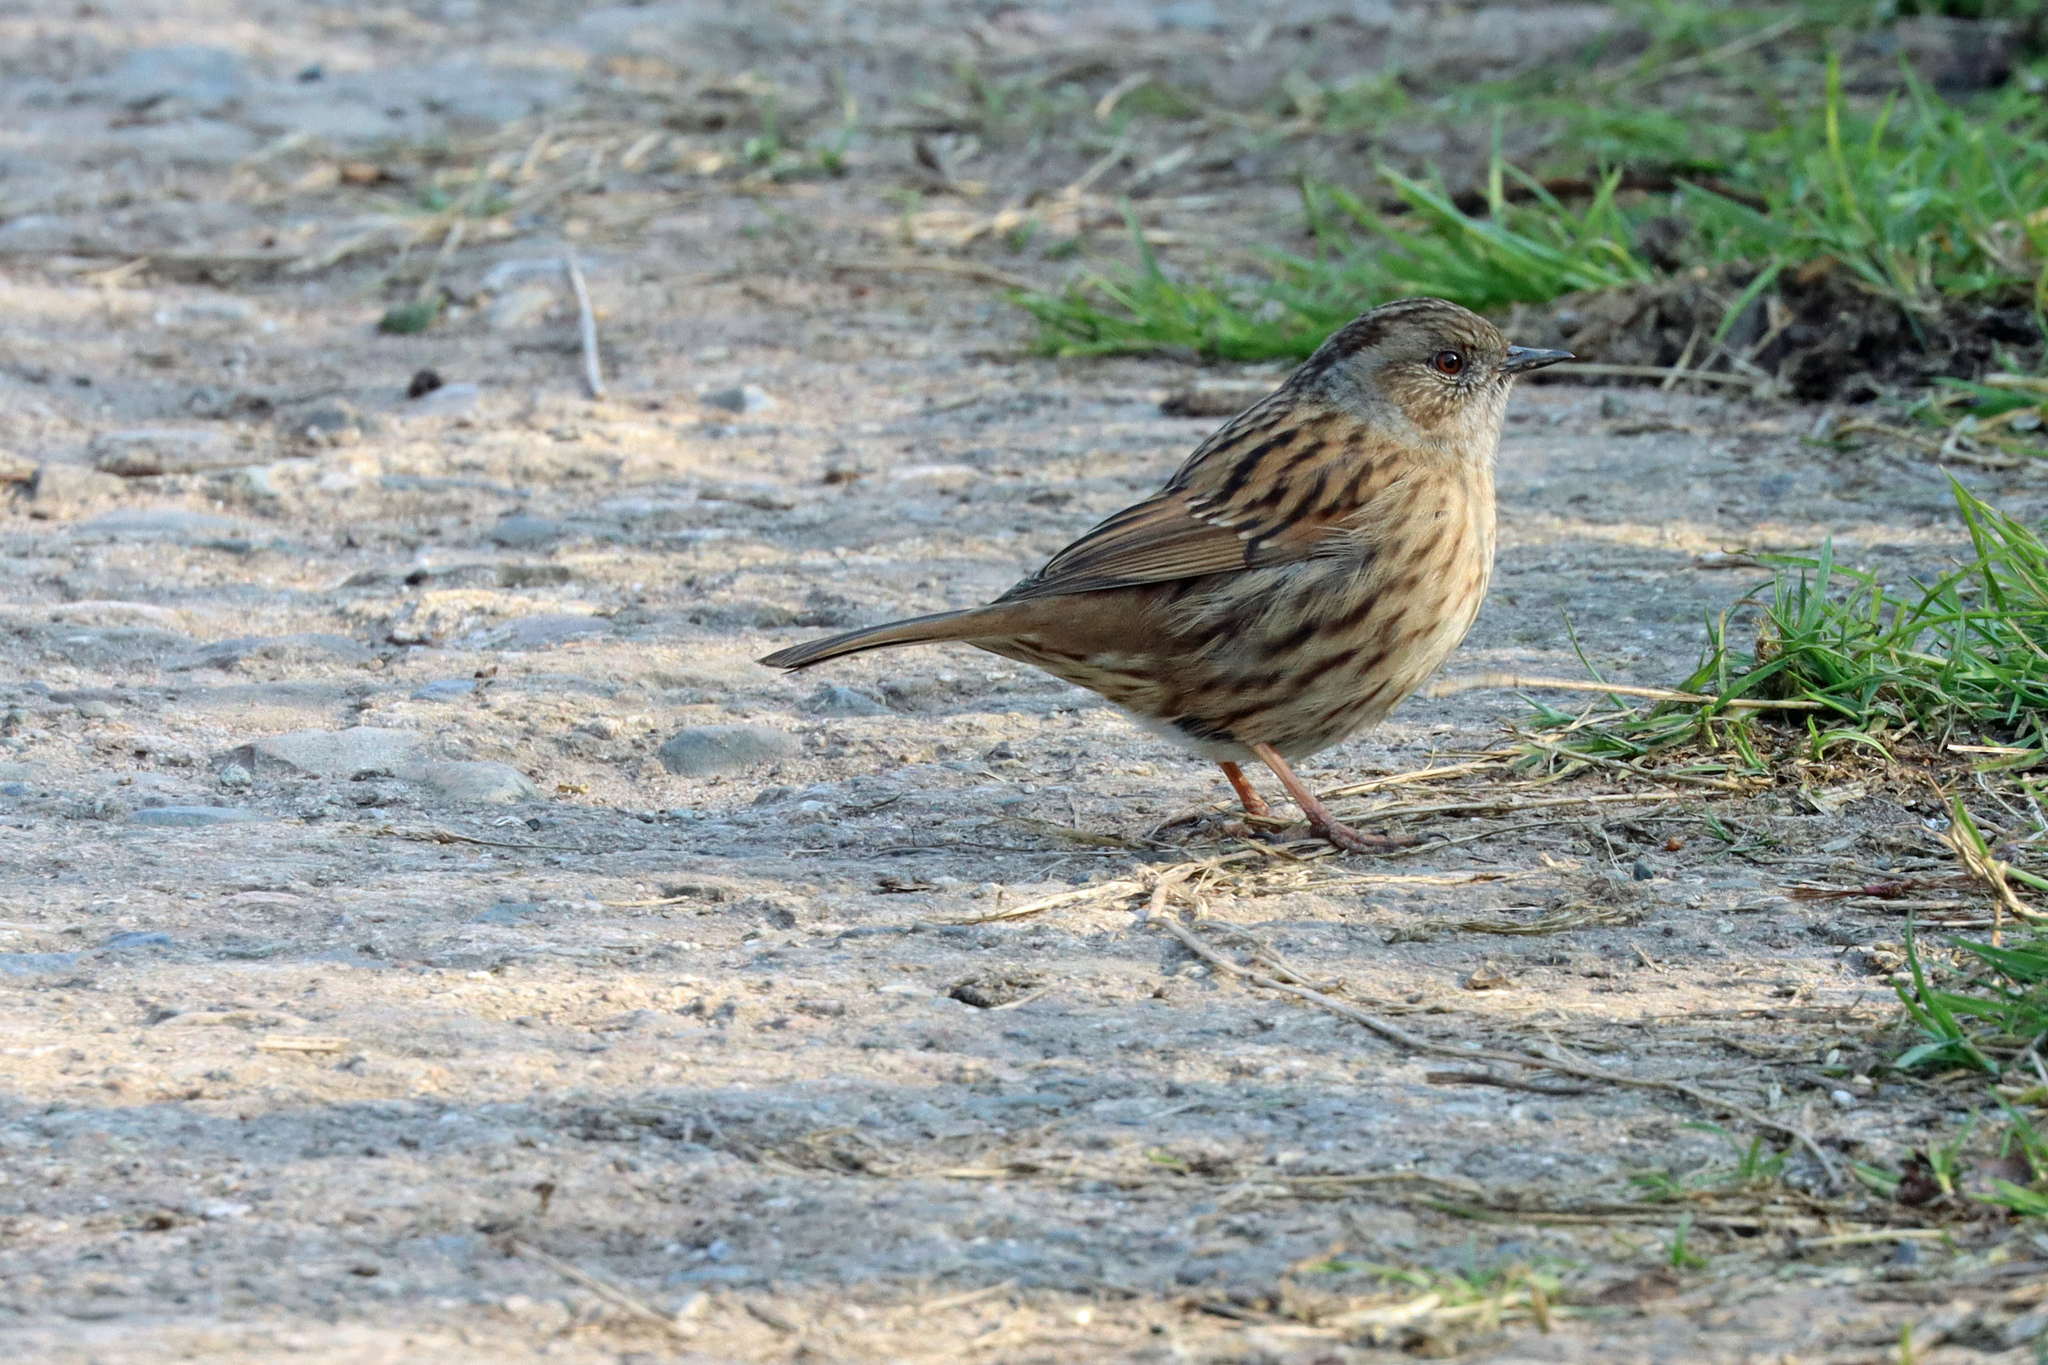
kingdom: Animalia
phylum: Chordata
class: Aves
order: Passeriformes
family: Prunellidae
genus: Prunella
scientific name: Prunella modularis
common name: Dunnock
